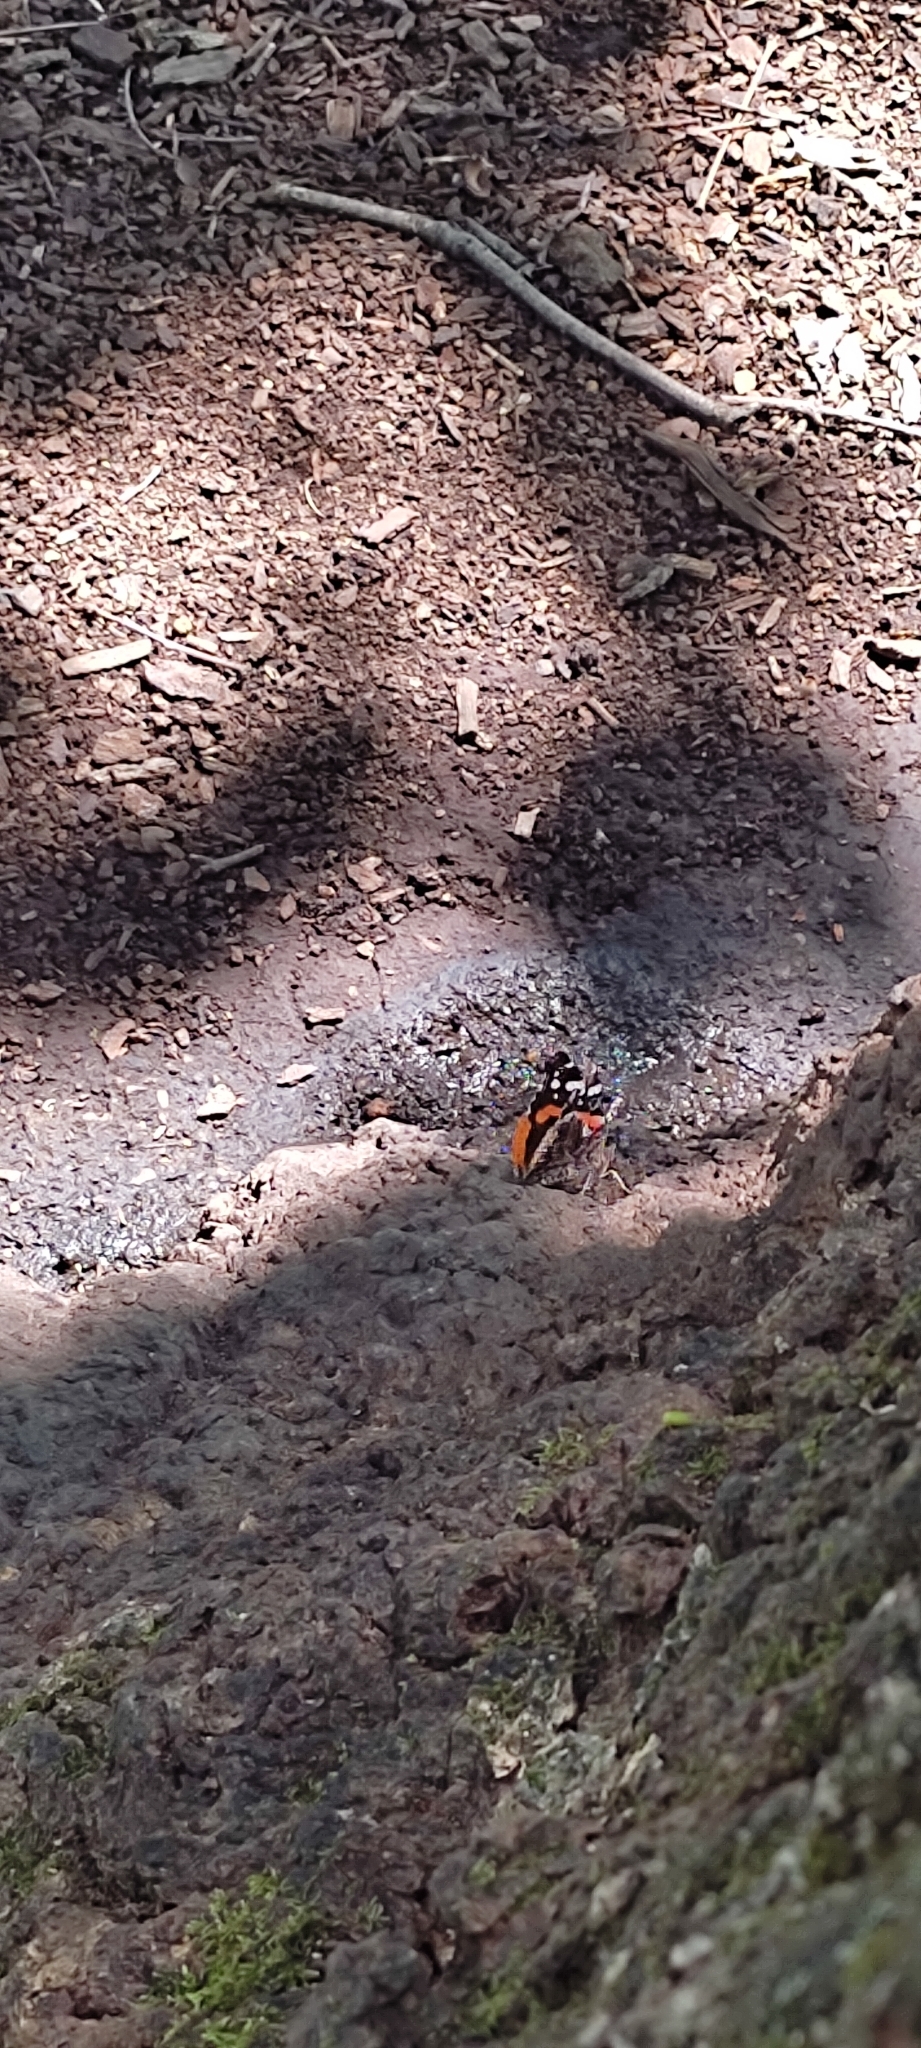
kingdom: Animalia
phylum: Arthropoda
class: Insecta
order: Lepidoptera
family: Nymphalidae
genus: Vanessa
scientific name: Vanessa atalanta
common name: Red admiral
